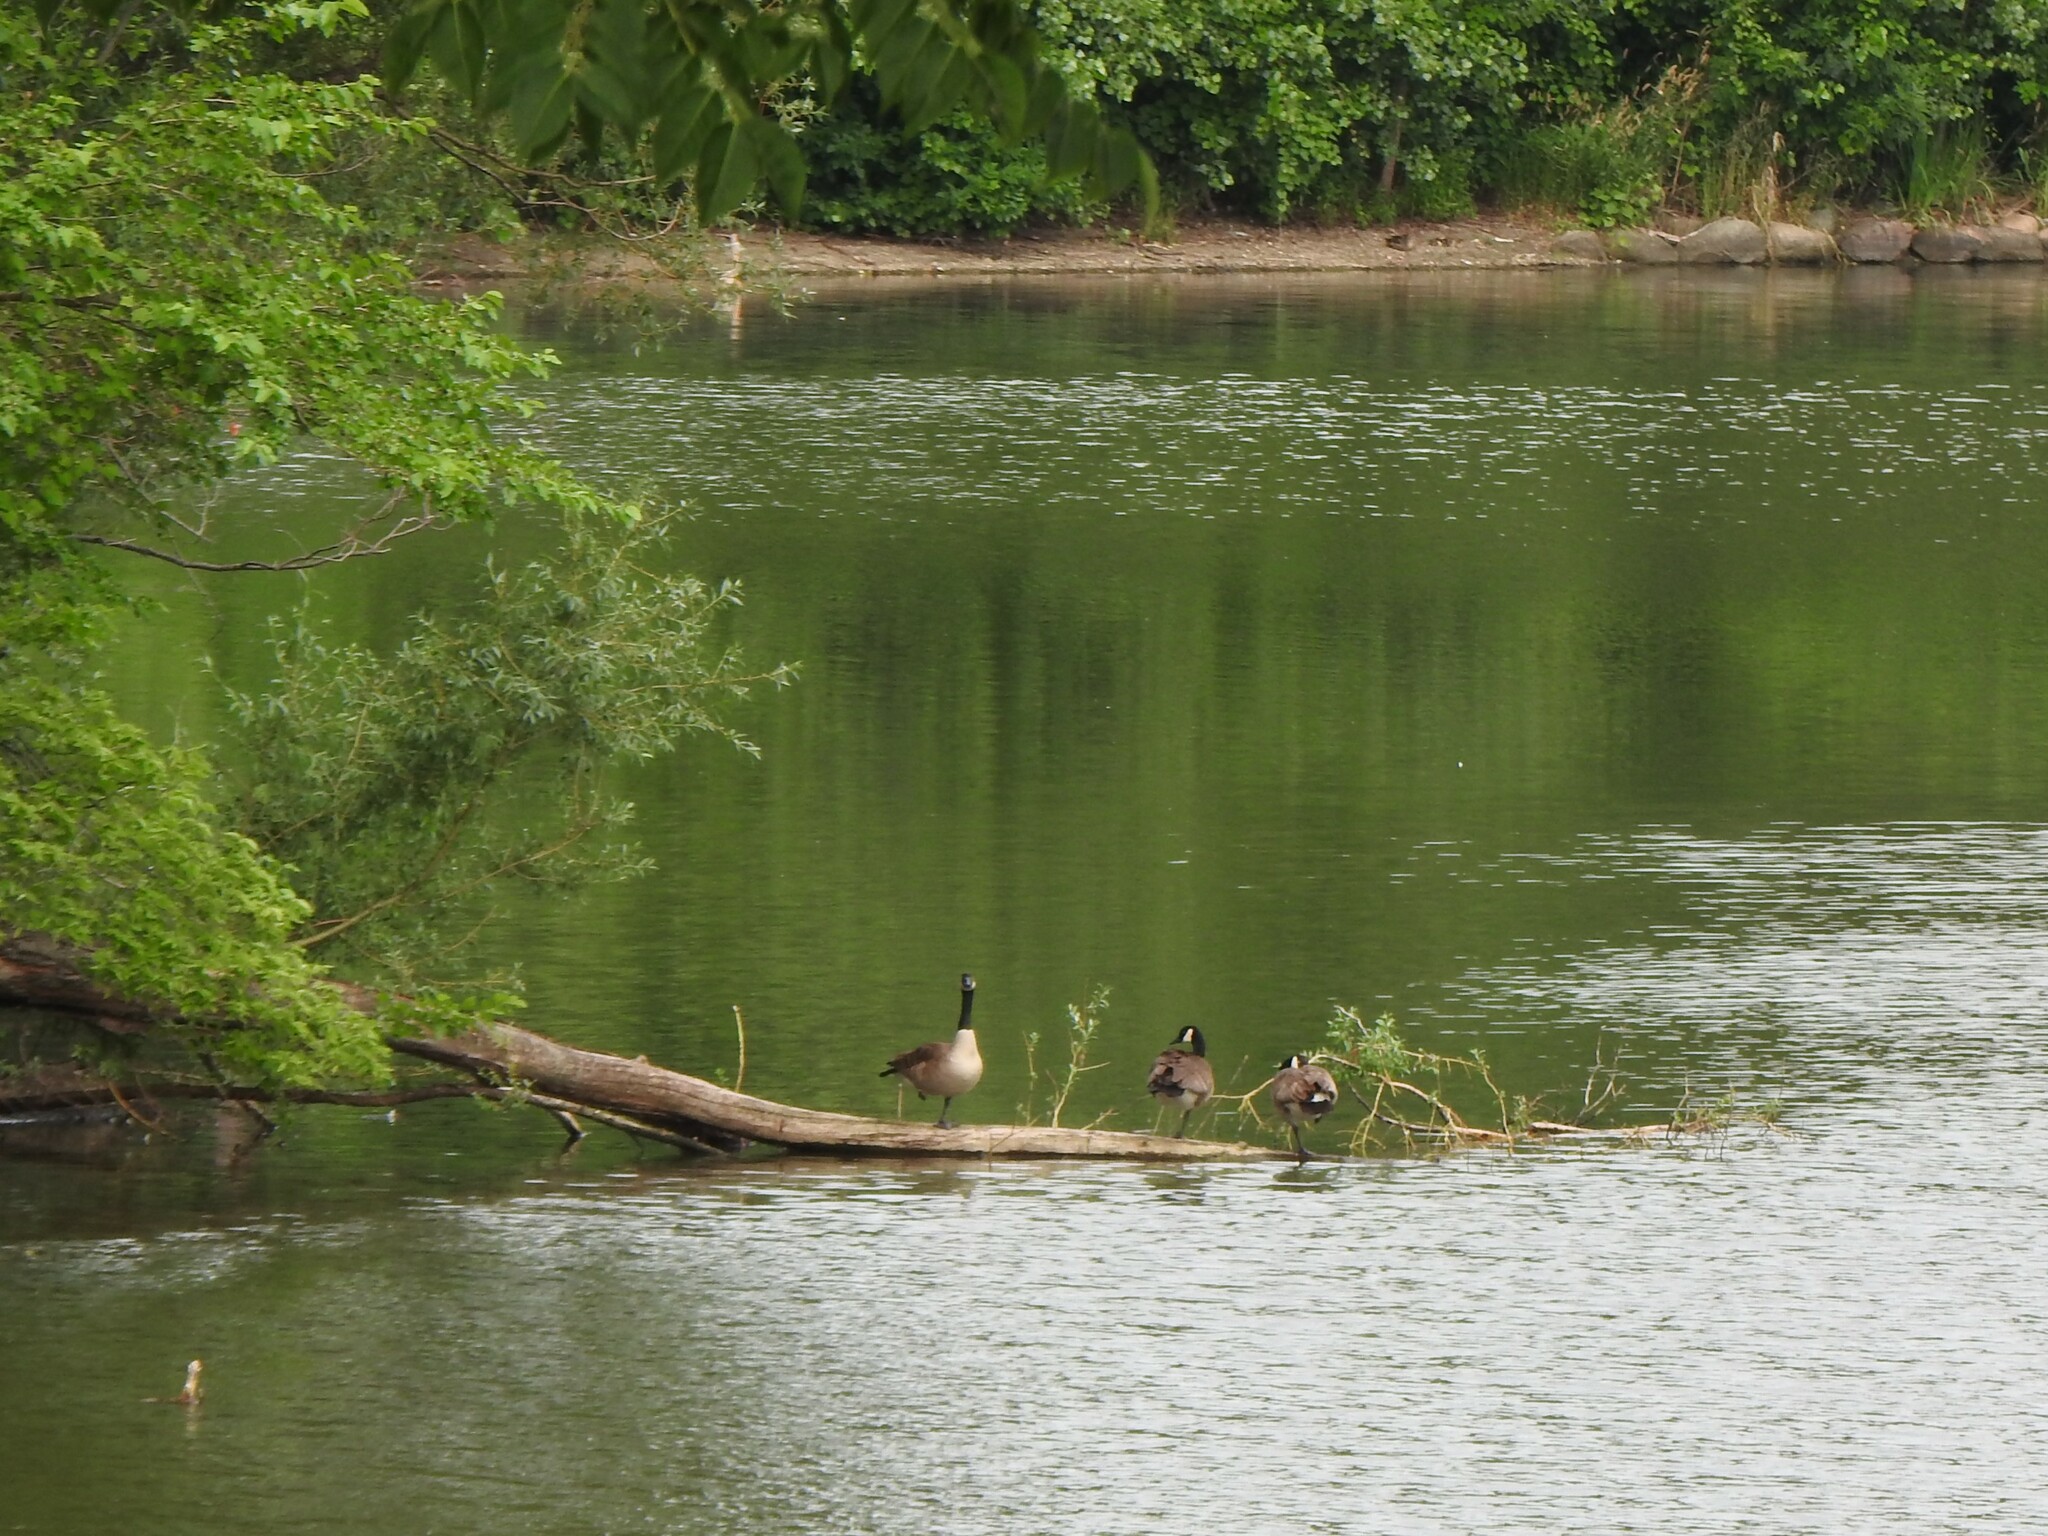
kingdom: Animalia
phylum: Chordata
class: Aves
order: Anseriformes
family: Anatidae
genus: Branta
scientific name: Branta canadensis
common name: Canada goose
